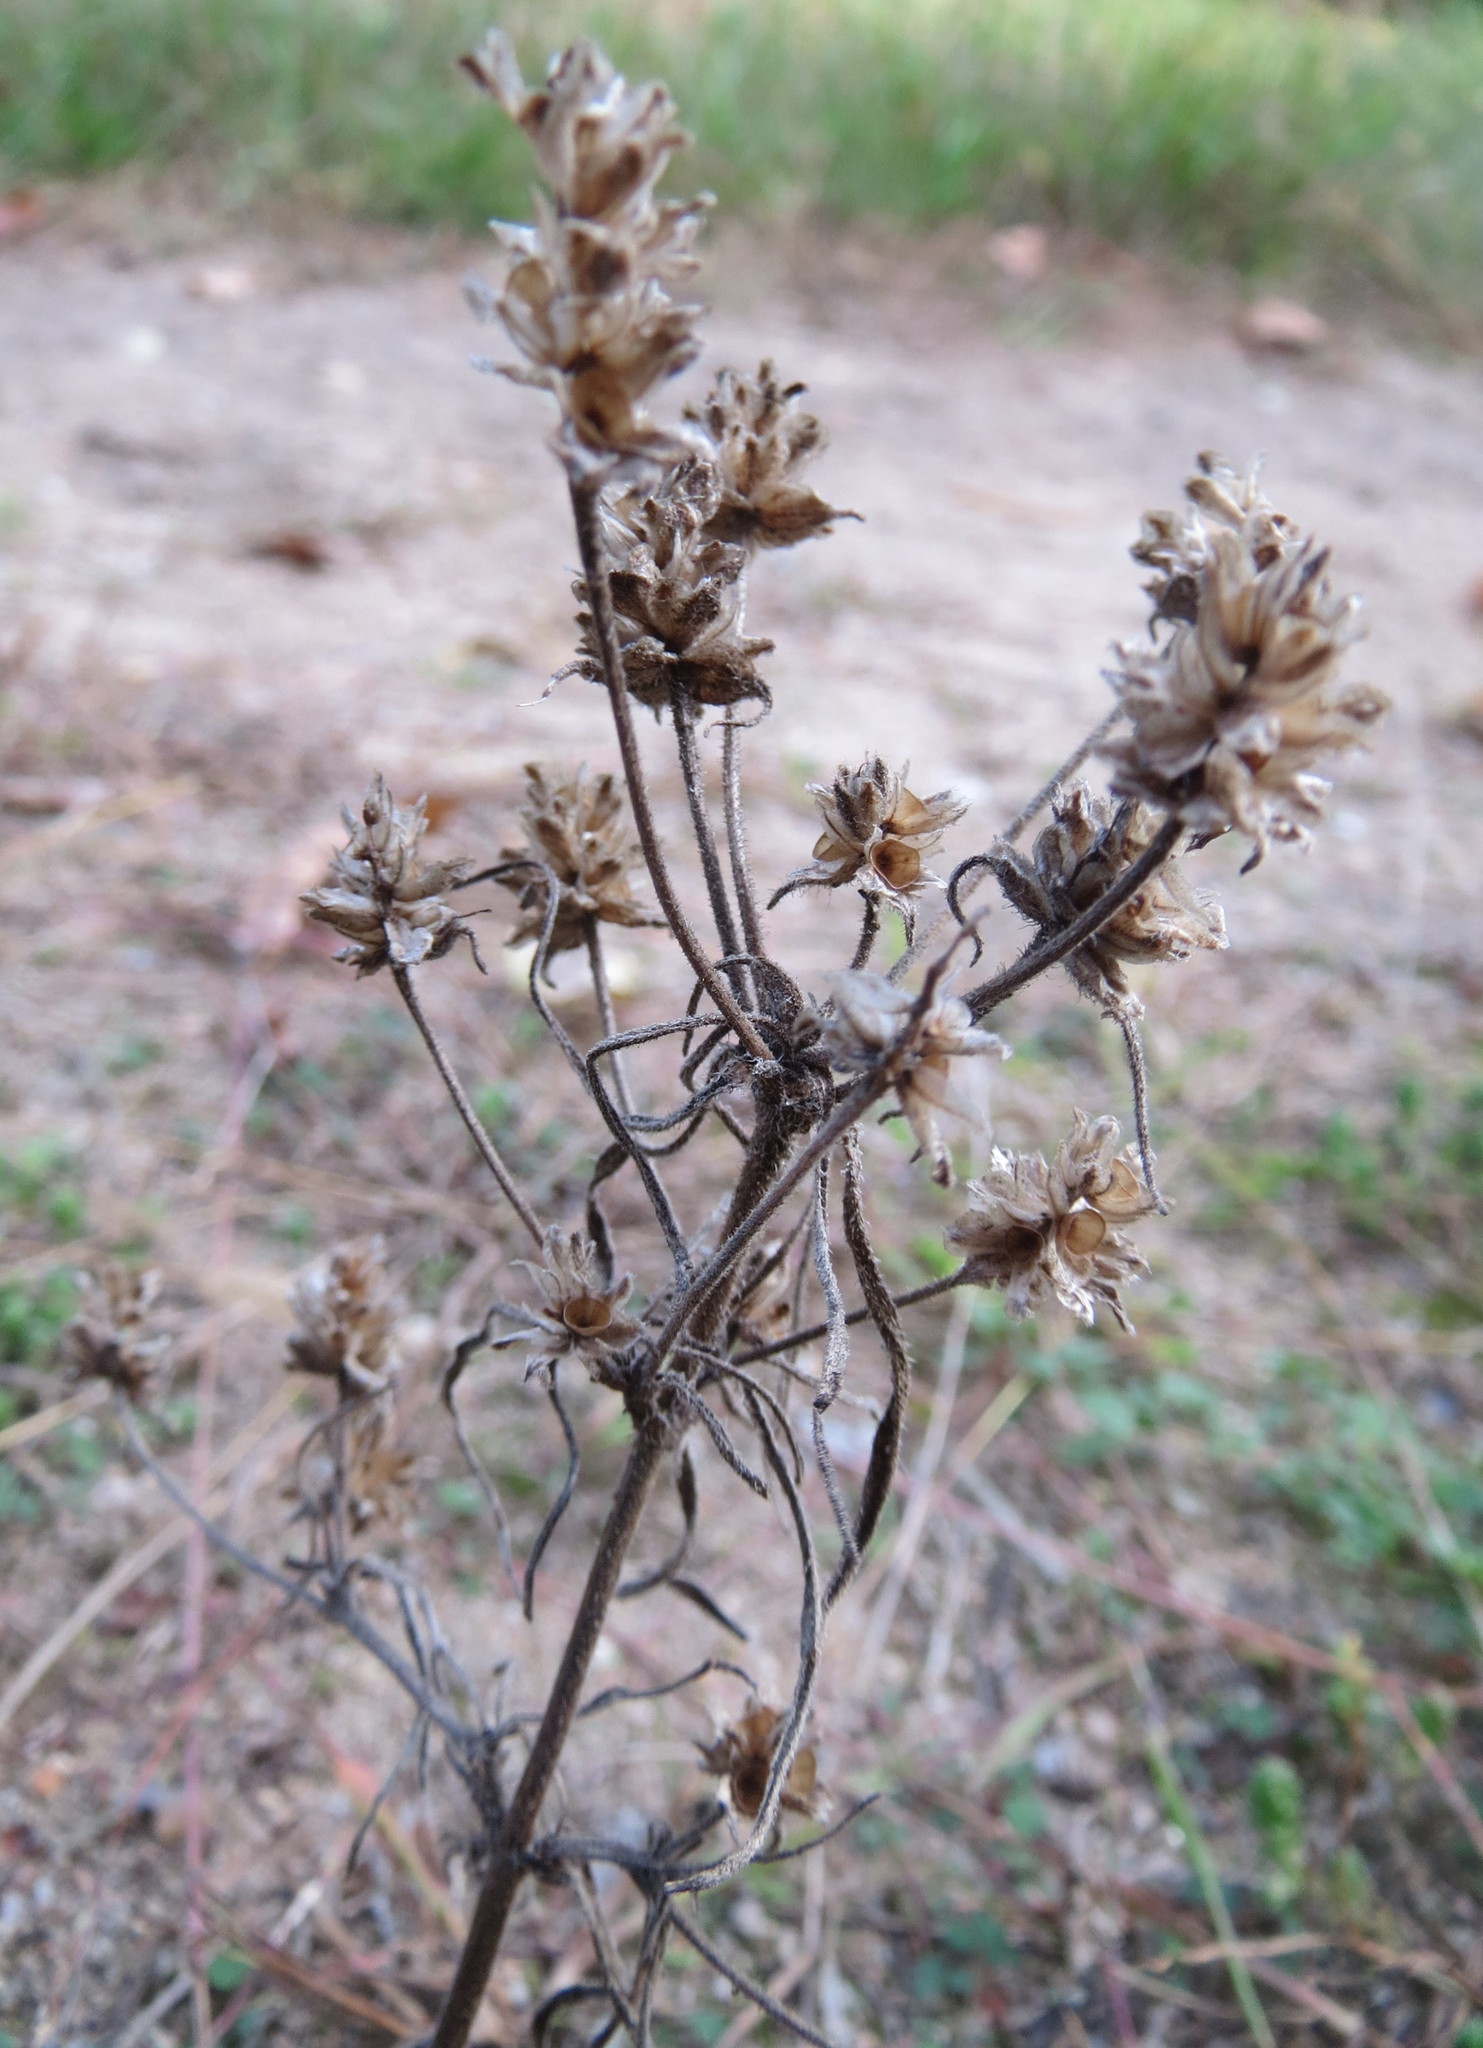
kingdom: Plantae
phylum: Tracheophyta
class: Magnoliopsida
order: Lamiales
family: Plantaginaceae
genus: Plantago
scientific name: Plantago arenaria
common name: Branched plantain
